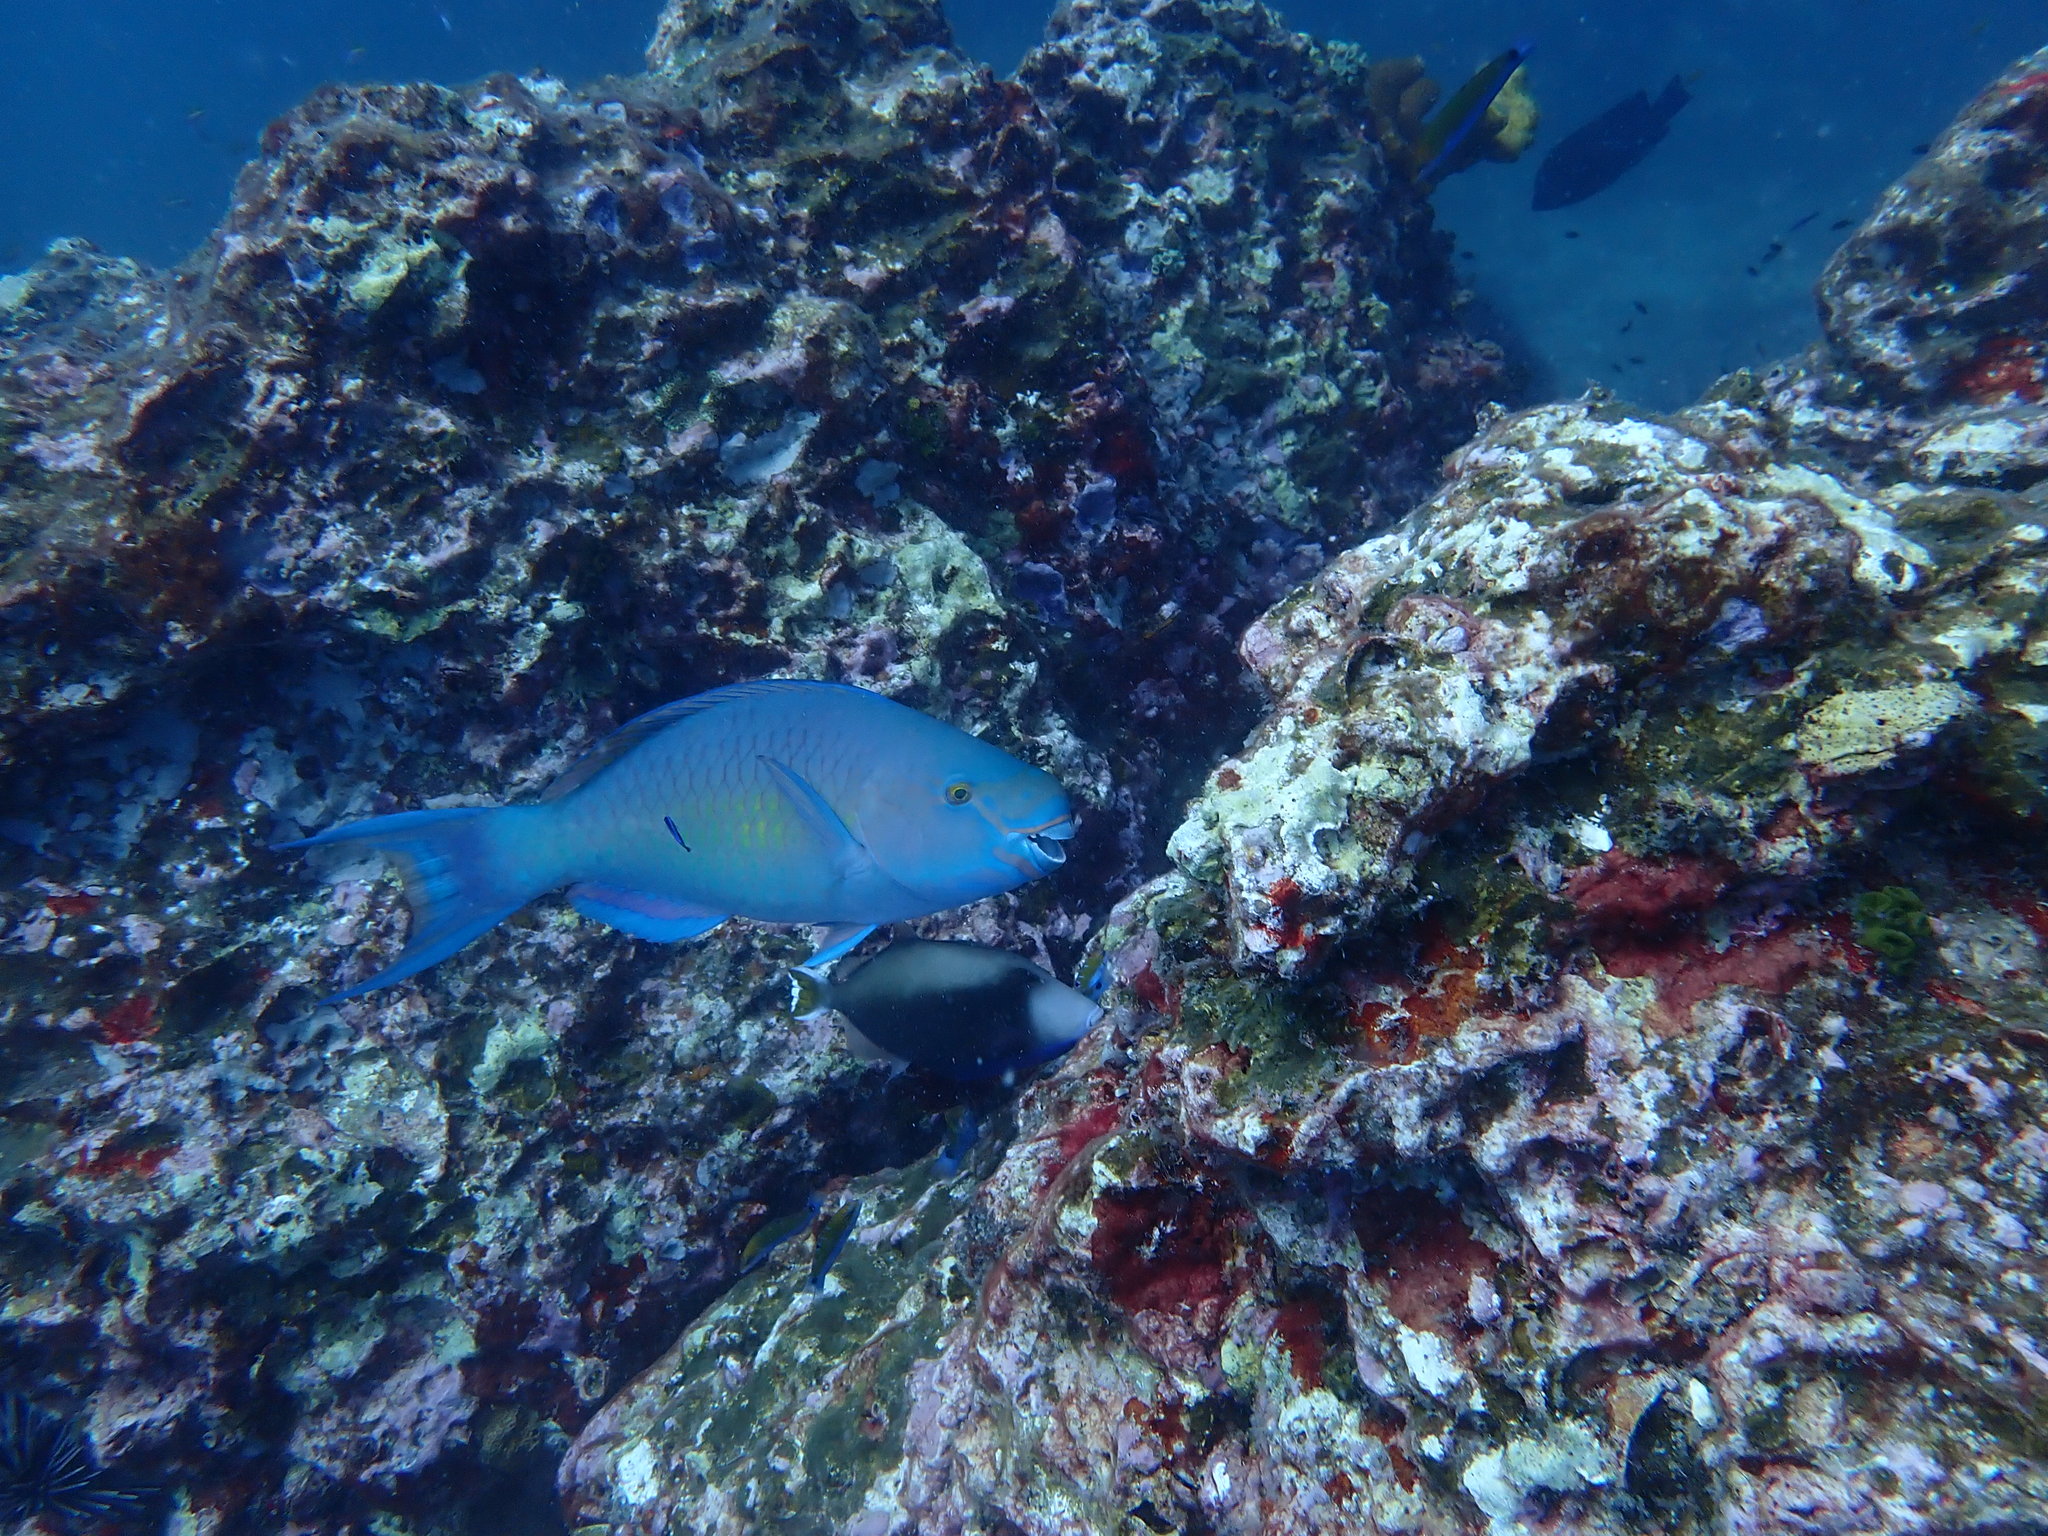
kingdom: Animalia
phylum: Chordata
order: Perciformes
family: Scaridae
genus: Scarus
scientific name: Scarus rubroviolaceus
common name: Ember parrotfish
